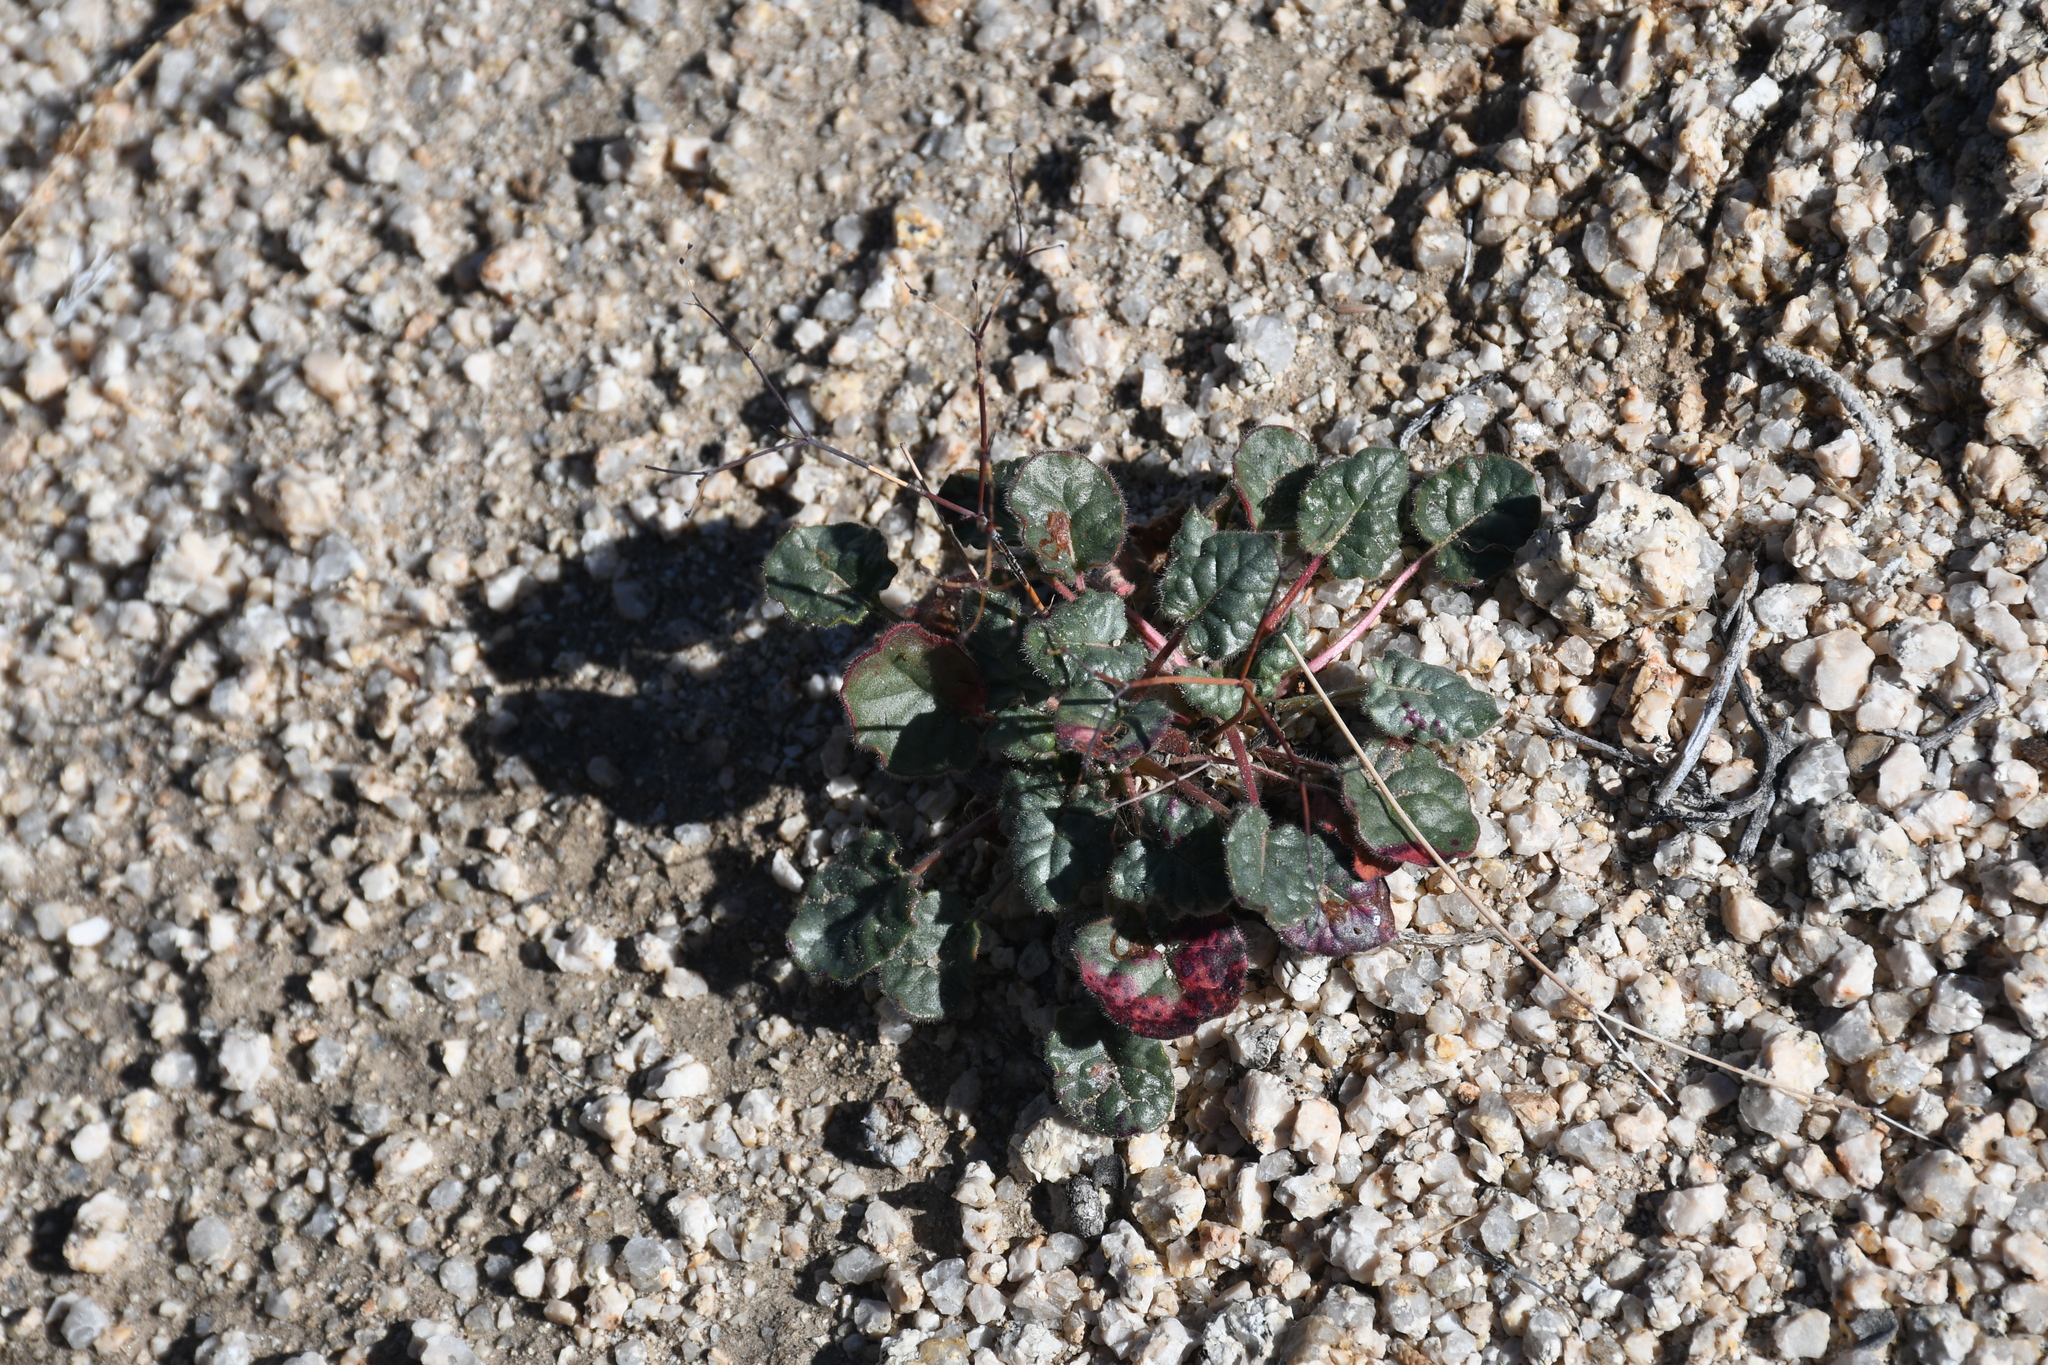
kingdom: Plantae
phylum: Tracheophyta
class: Magnoliopsida
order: Caryophyllales
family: Polygonaceae
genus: Eriogonum
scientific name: Eriogonum inflatum
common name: Desert trumpet
